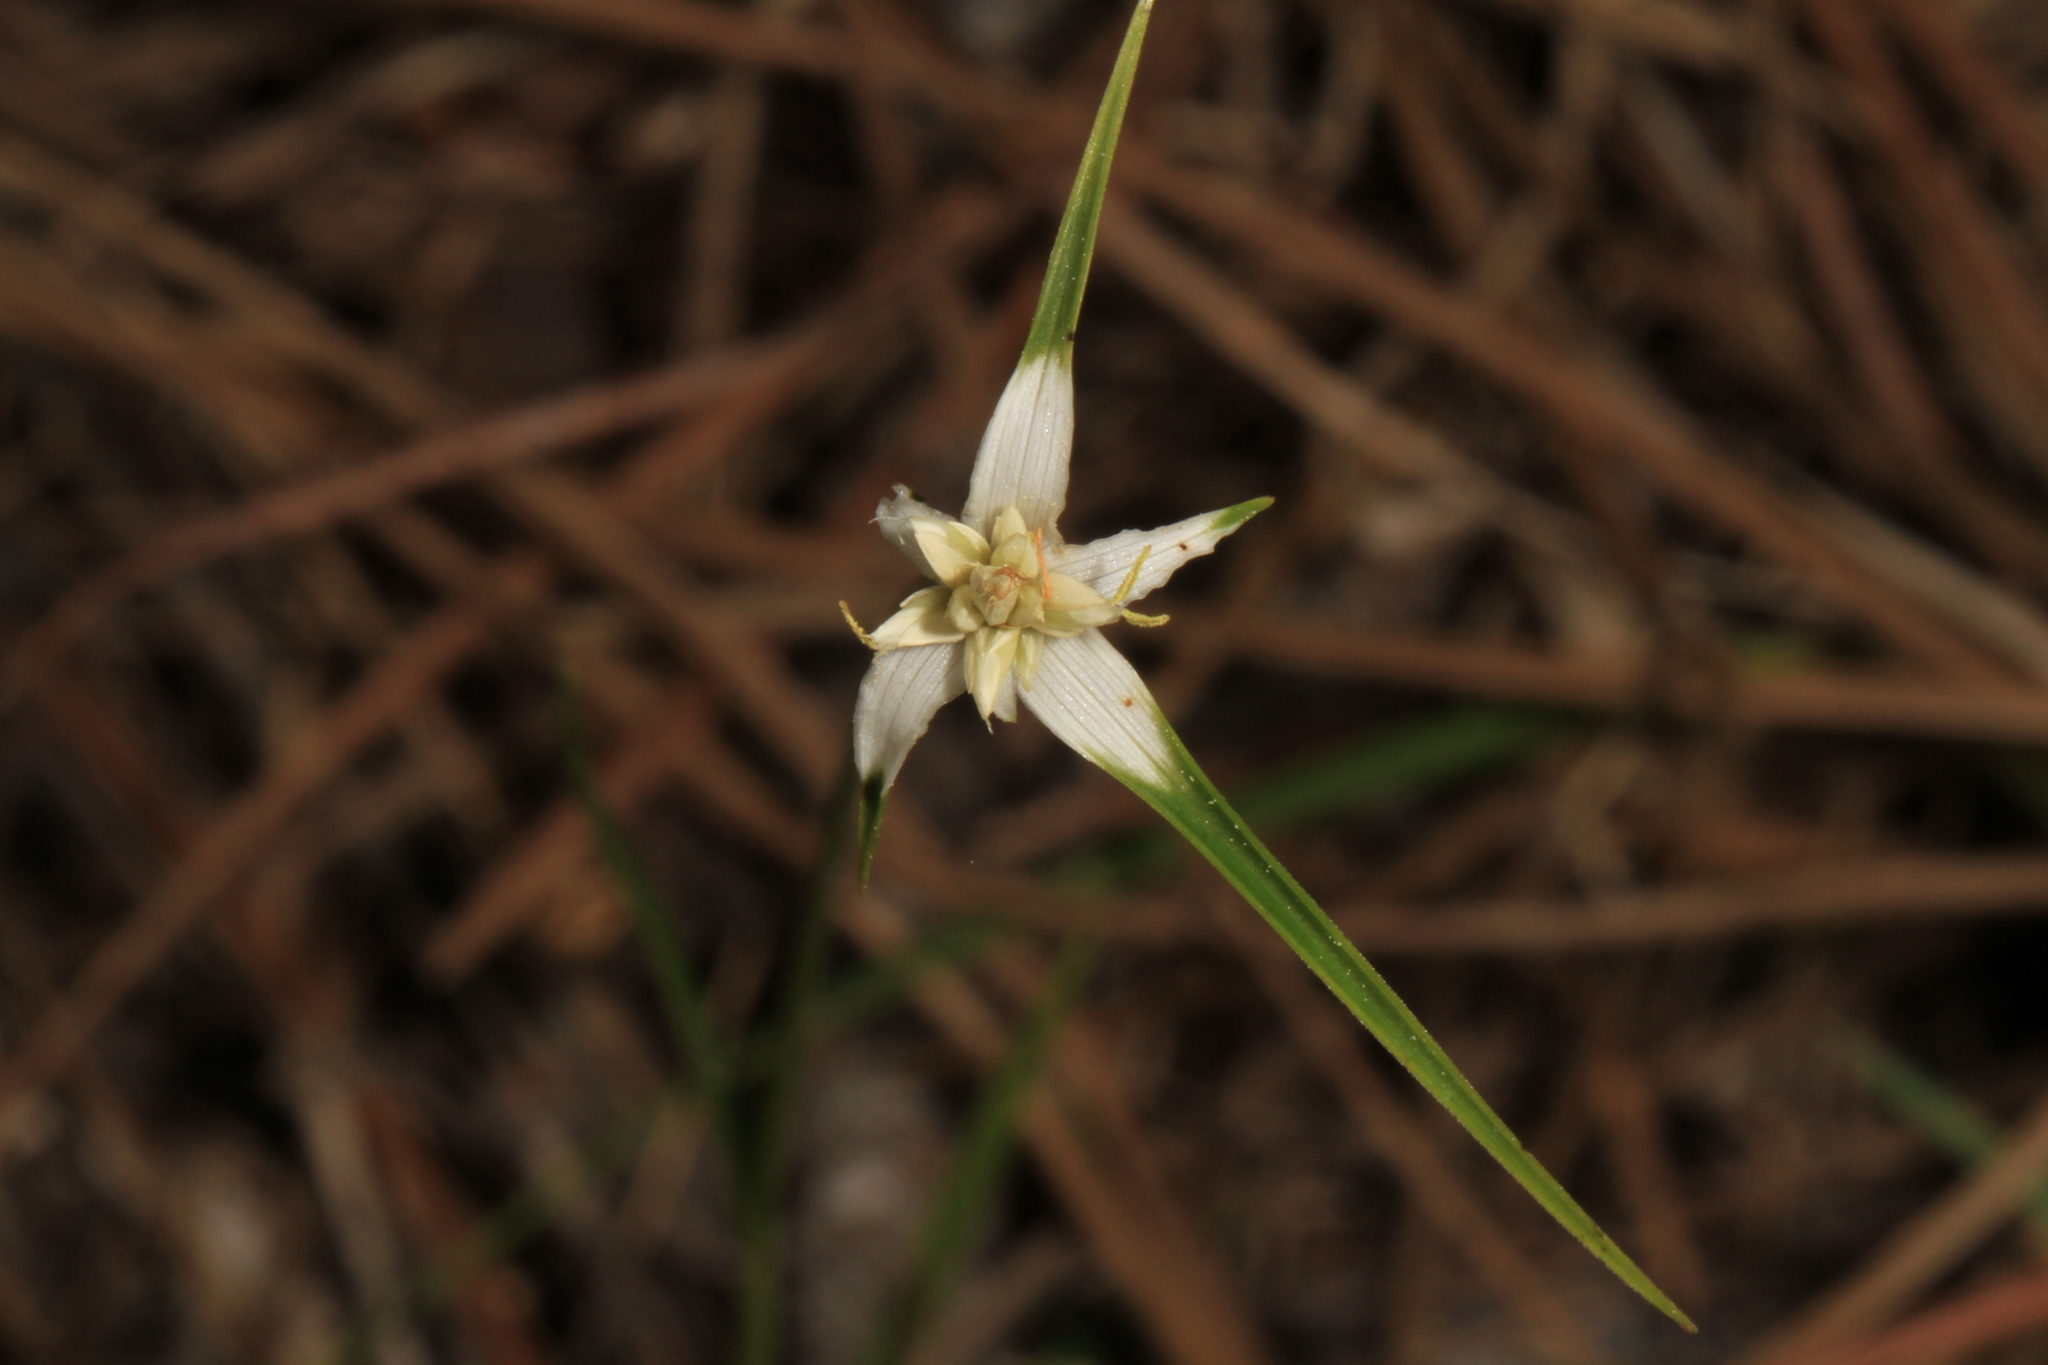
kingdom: Plantae
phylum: Tracheophyta
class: Liliopsida
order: Poales
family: Cyperaceae
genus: Rhynchospora
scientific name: Rhynchospora colorata
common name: Star sedge
